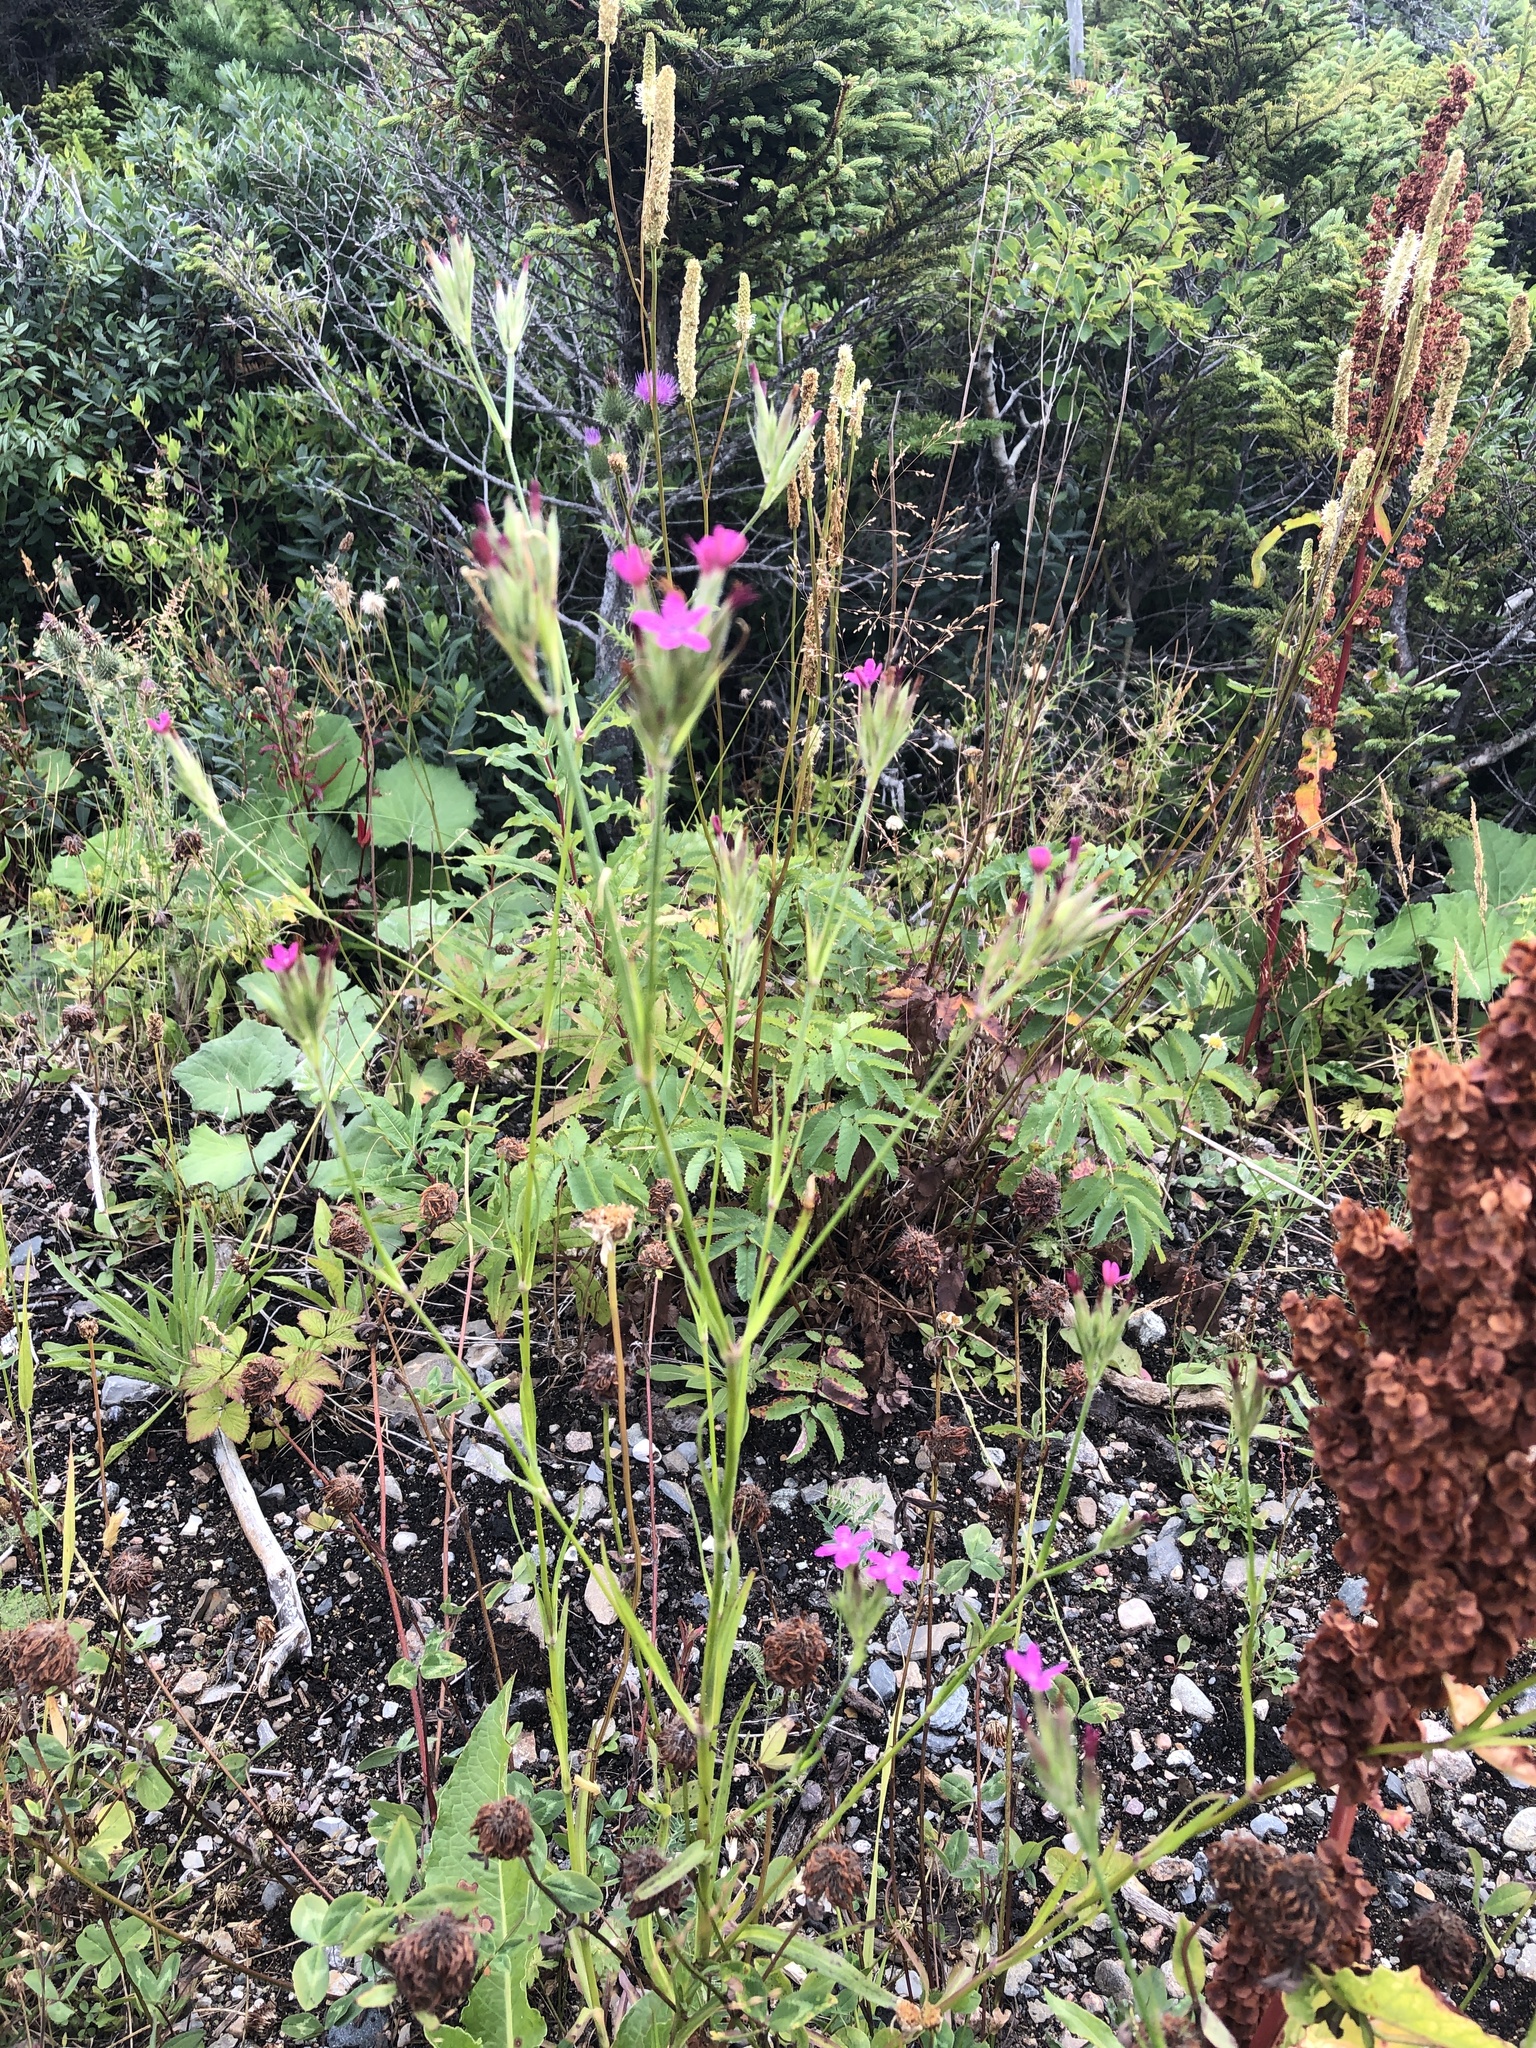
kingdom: Plantae
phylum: Tracheophyta
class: Magnoliopsida
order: Caryophyllales
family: Caryophyllaceae
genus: Dianthus
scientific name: Dianthus armeria
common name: Deptford pink
